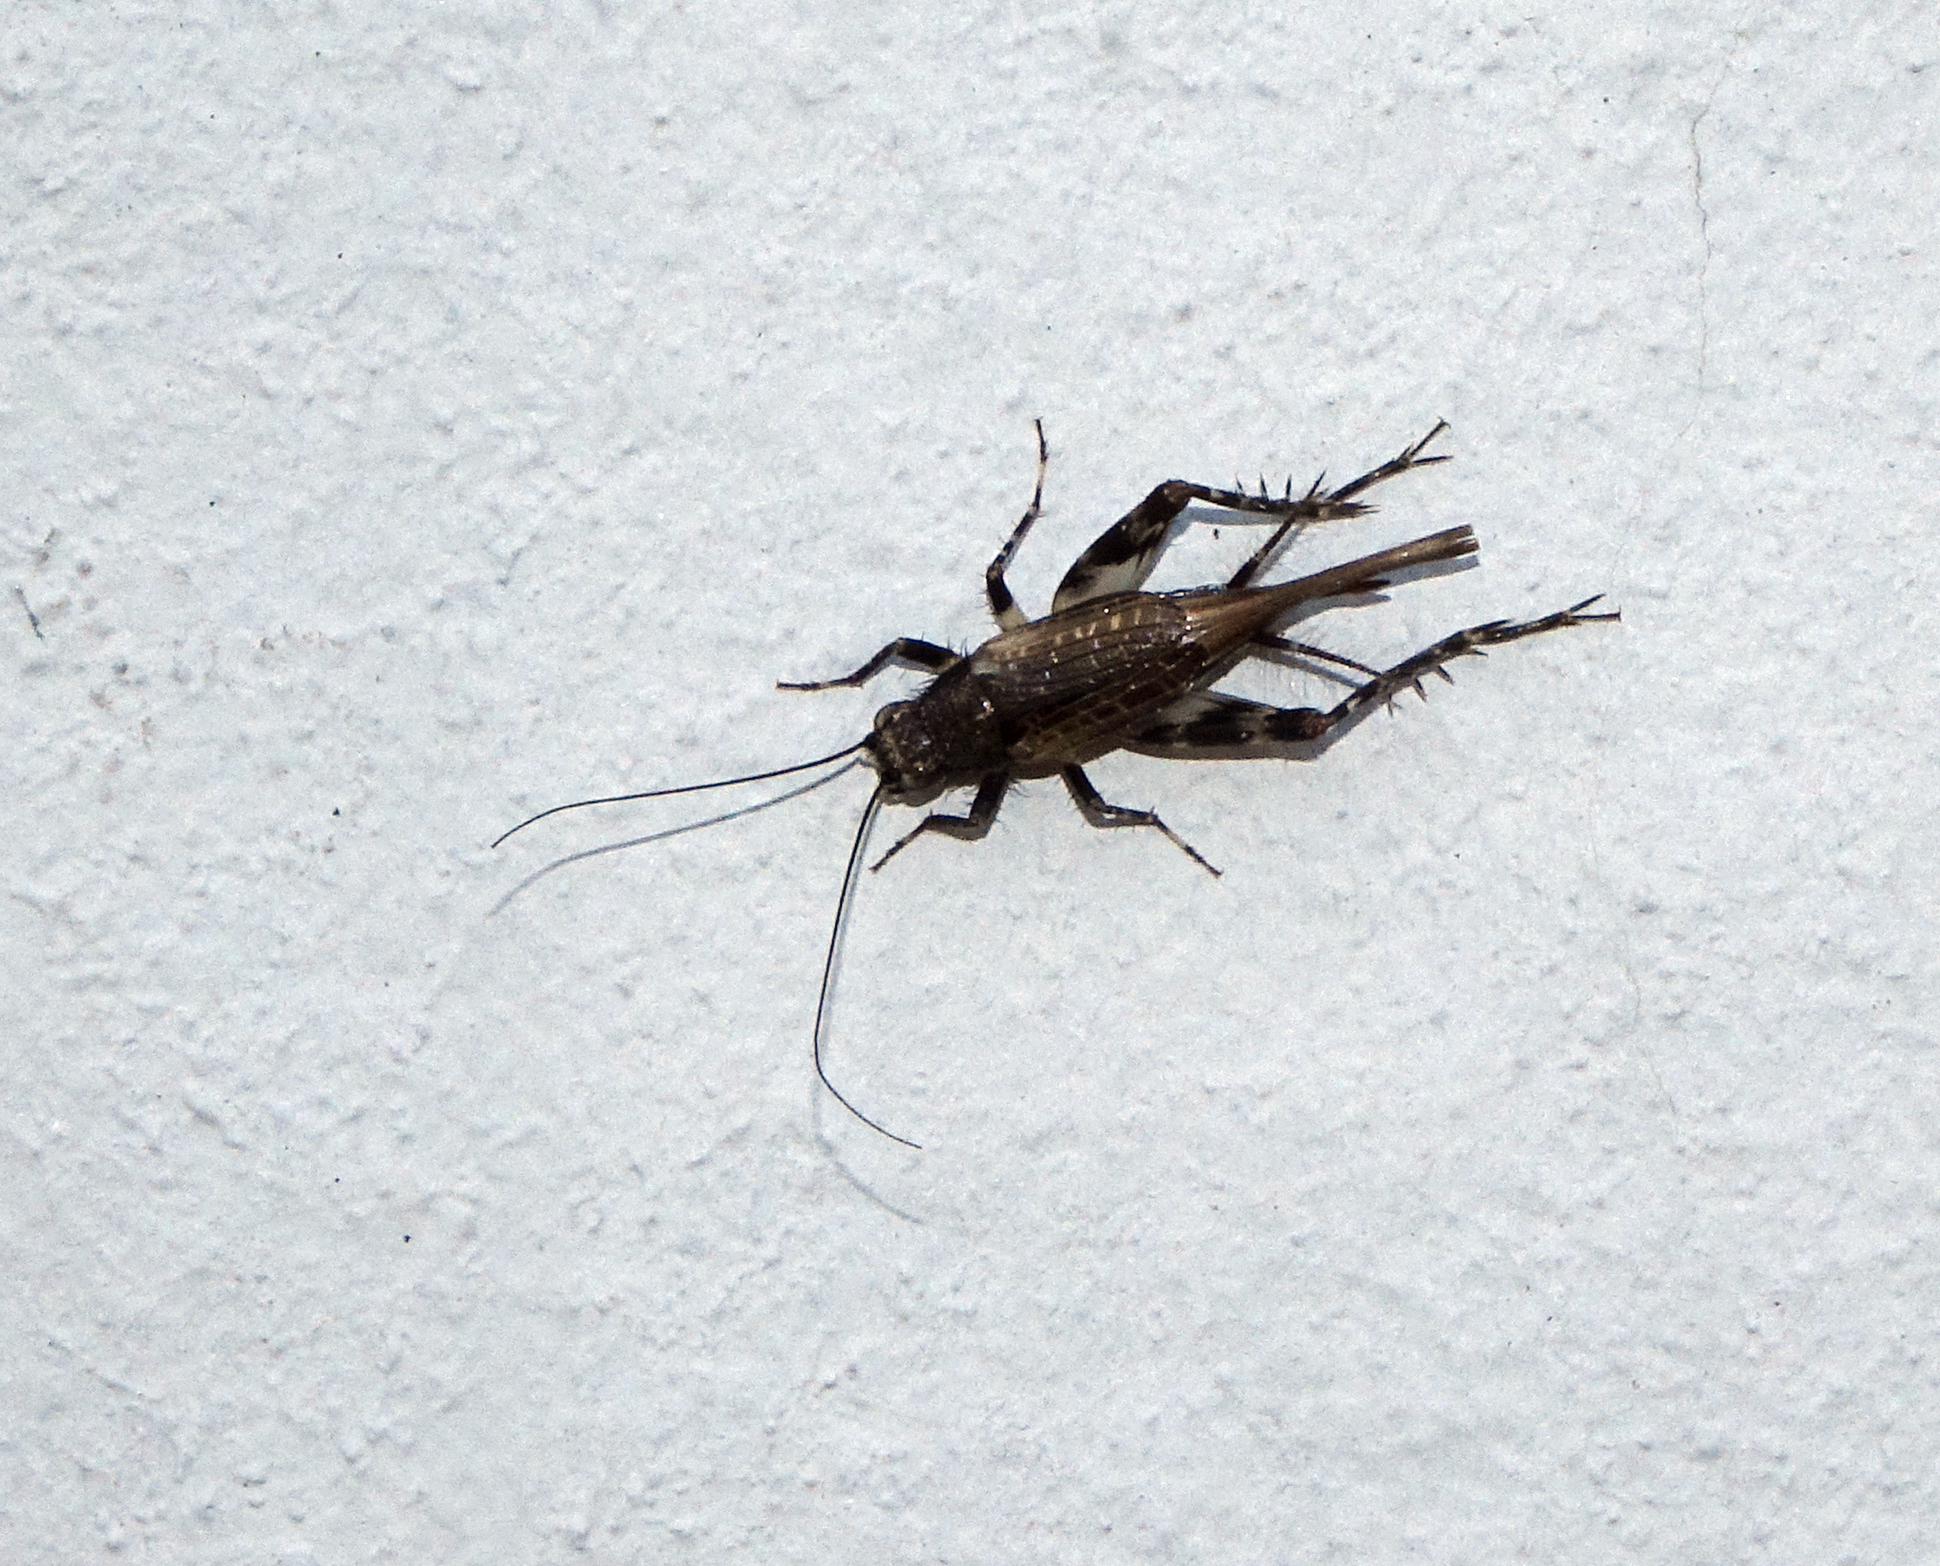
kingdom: Animalia
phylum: Arthropoda
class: Insecta
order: Orthoptera
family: Trigonidiidae
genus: Dianemobius
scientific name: Dianemobius fascipes
